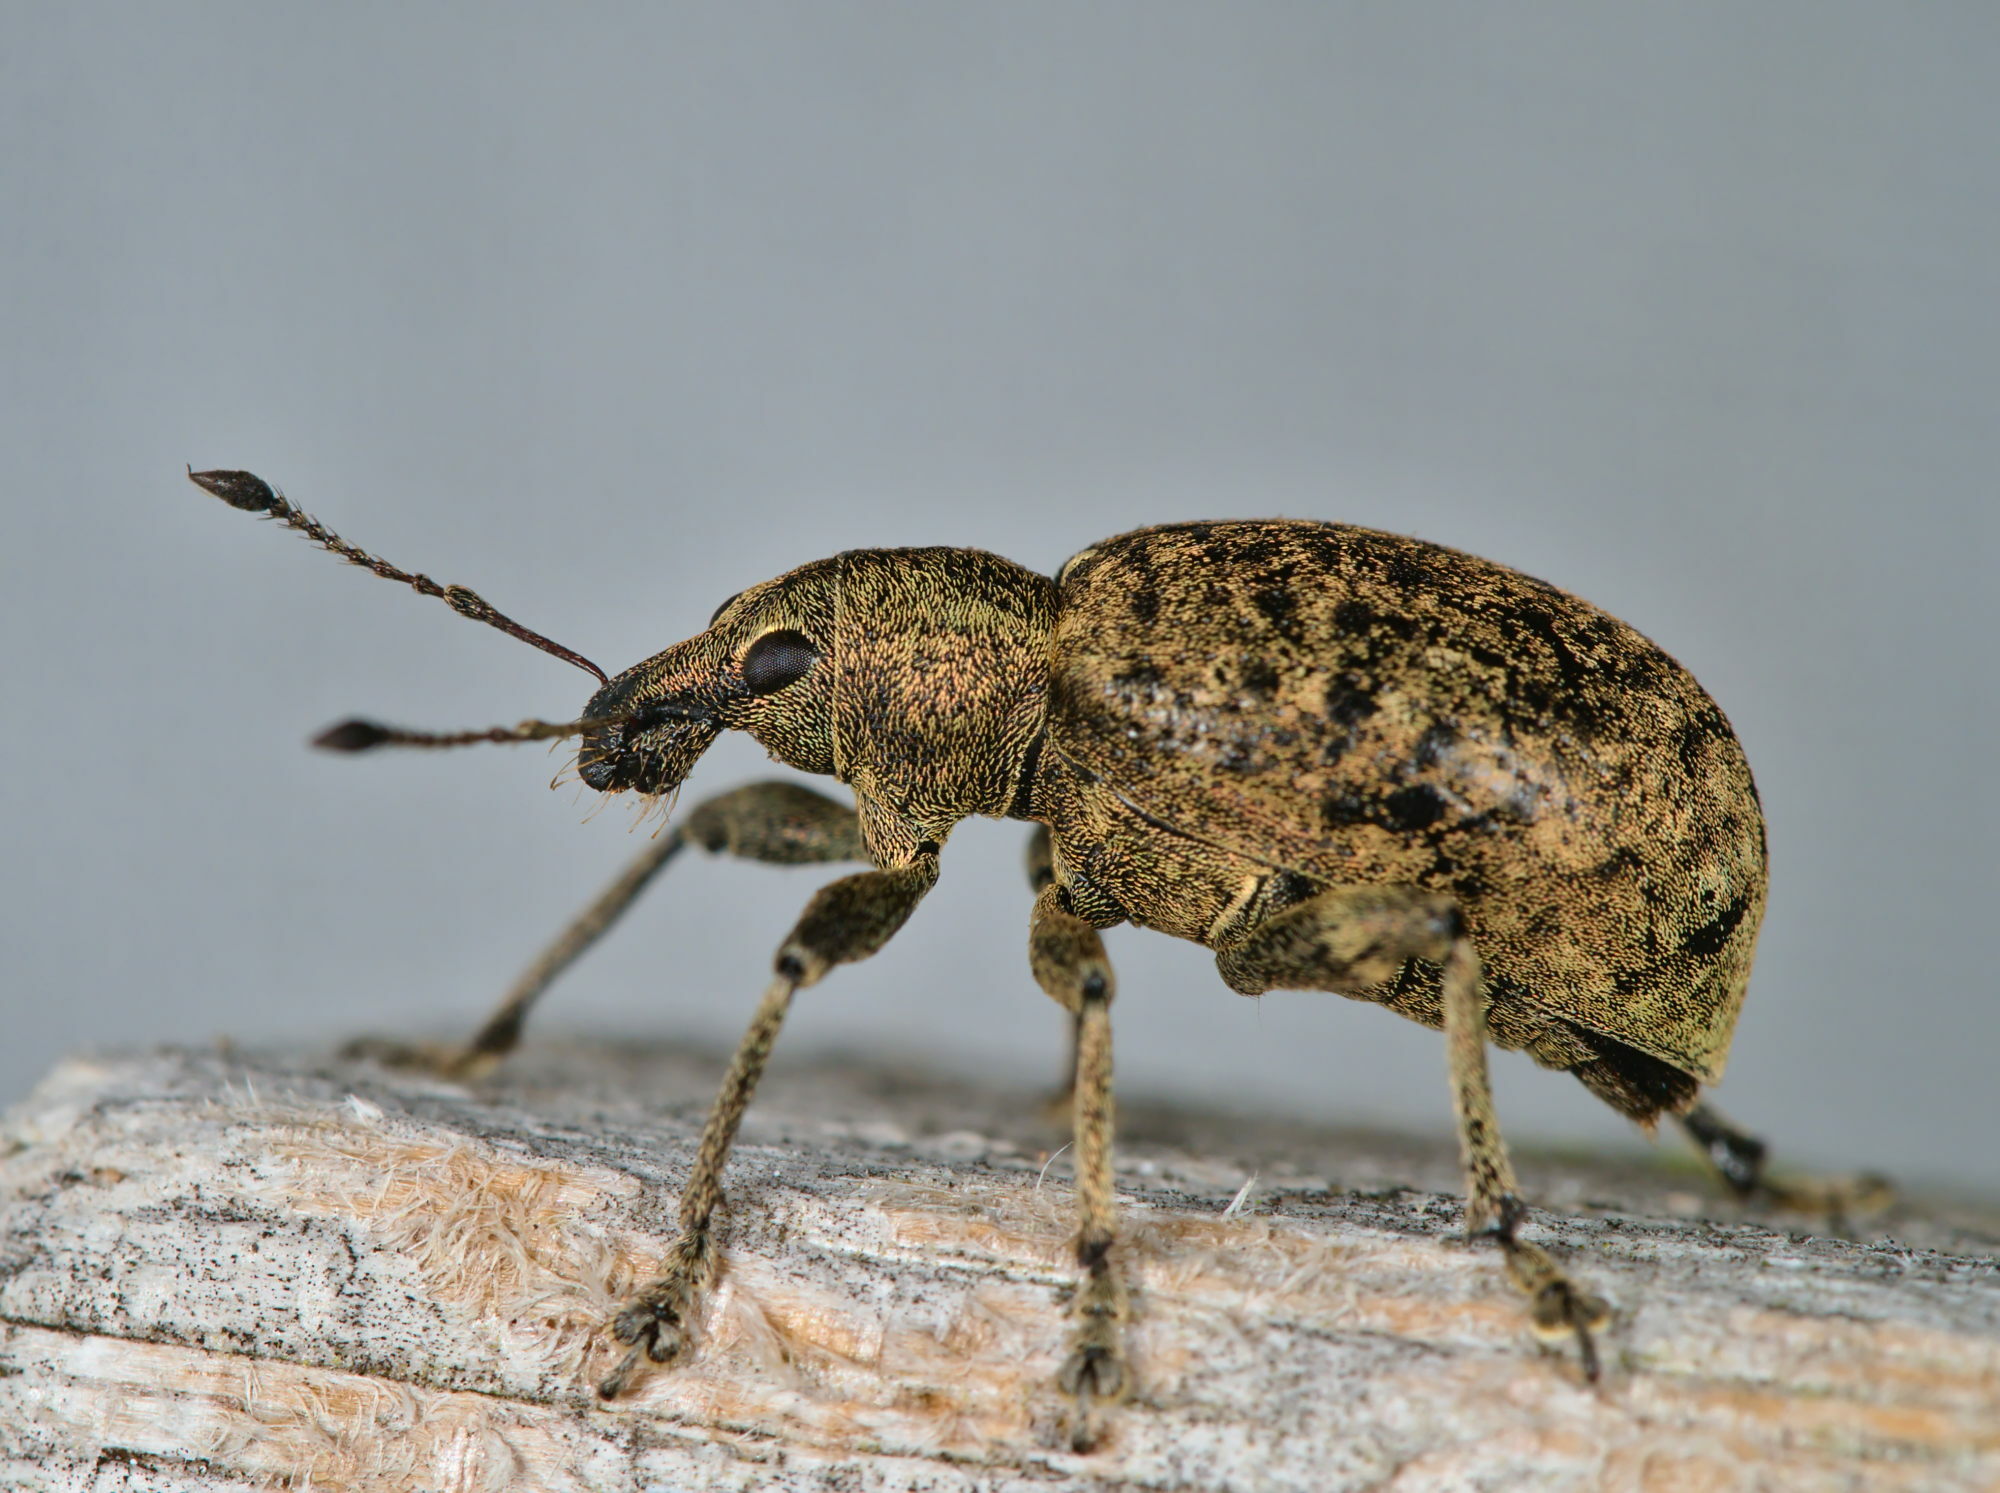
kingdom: Animalia
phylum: Arthropoda
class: Insecta
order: Coleoptera
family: Curculionidae
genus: Liophloeus
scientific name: Liophloeus tessulatus
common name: Weevil
